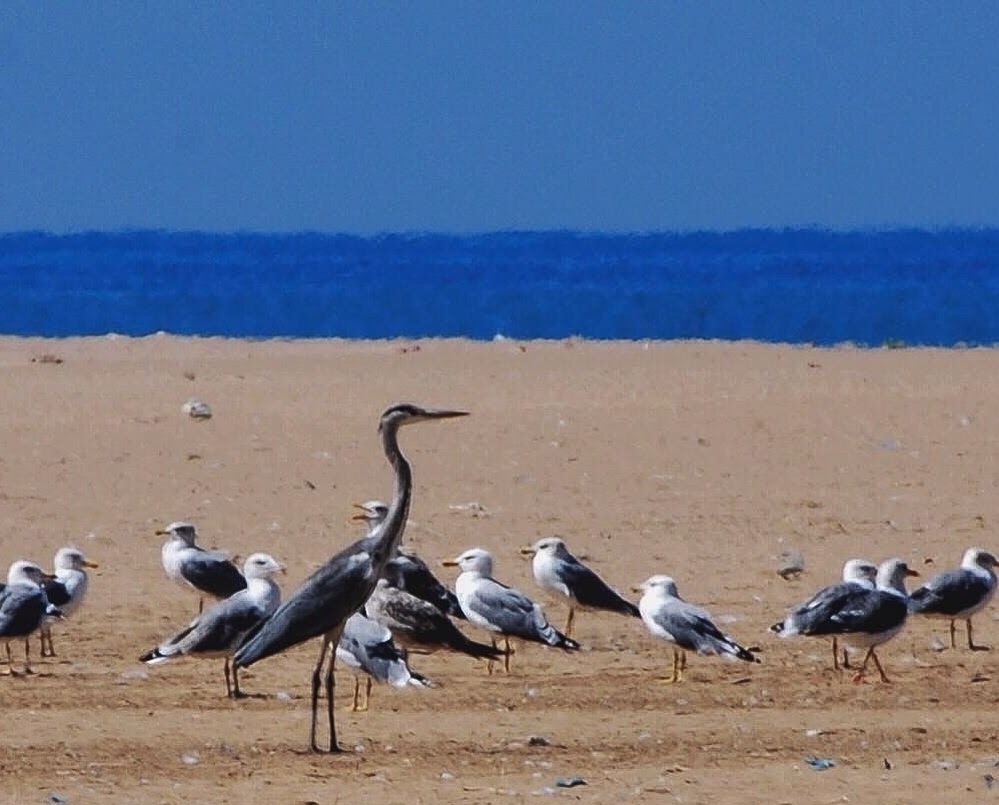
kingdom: Animalia
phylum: Chordata
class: Aves
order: Pelecaniformes
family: Ardeidae
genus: Ardea
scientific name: Ardea cinerea
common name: Grey heron
